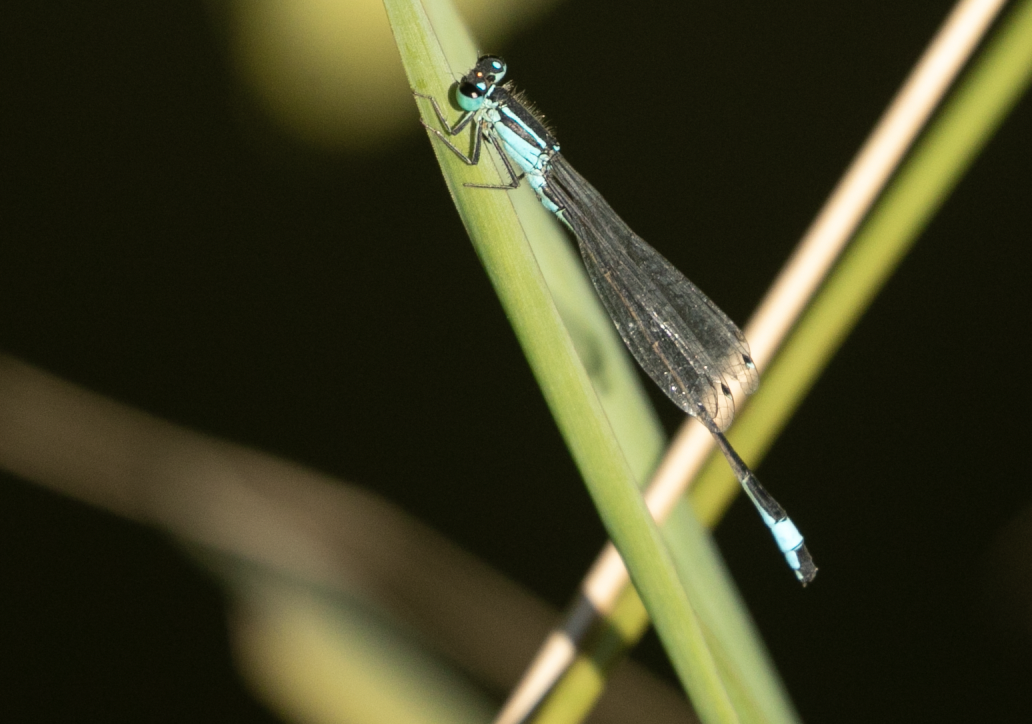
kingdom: Animalia
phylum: Arthropoda
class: Insecta
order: Odonata
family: Coenagrionidae
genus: Ischnura
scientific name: Ischnura elegans
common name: Blue-tailed damselfly
